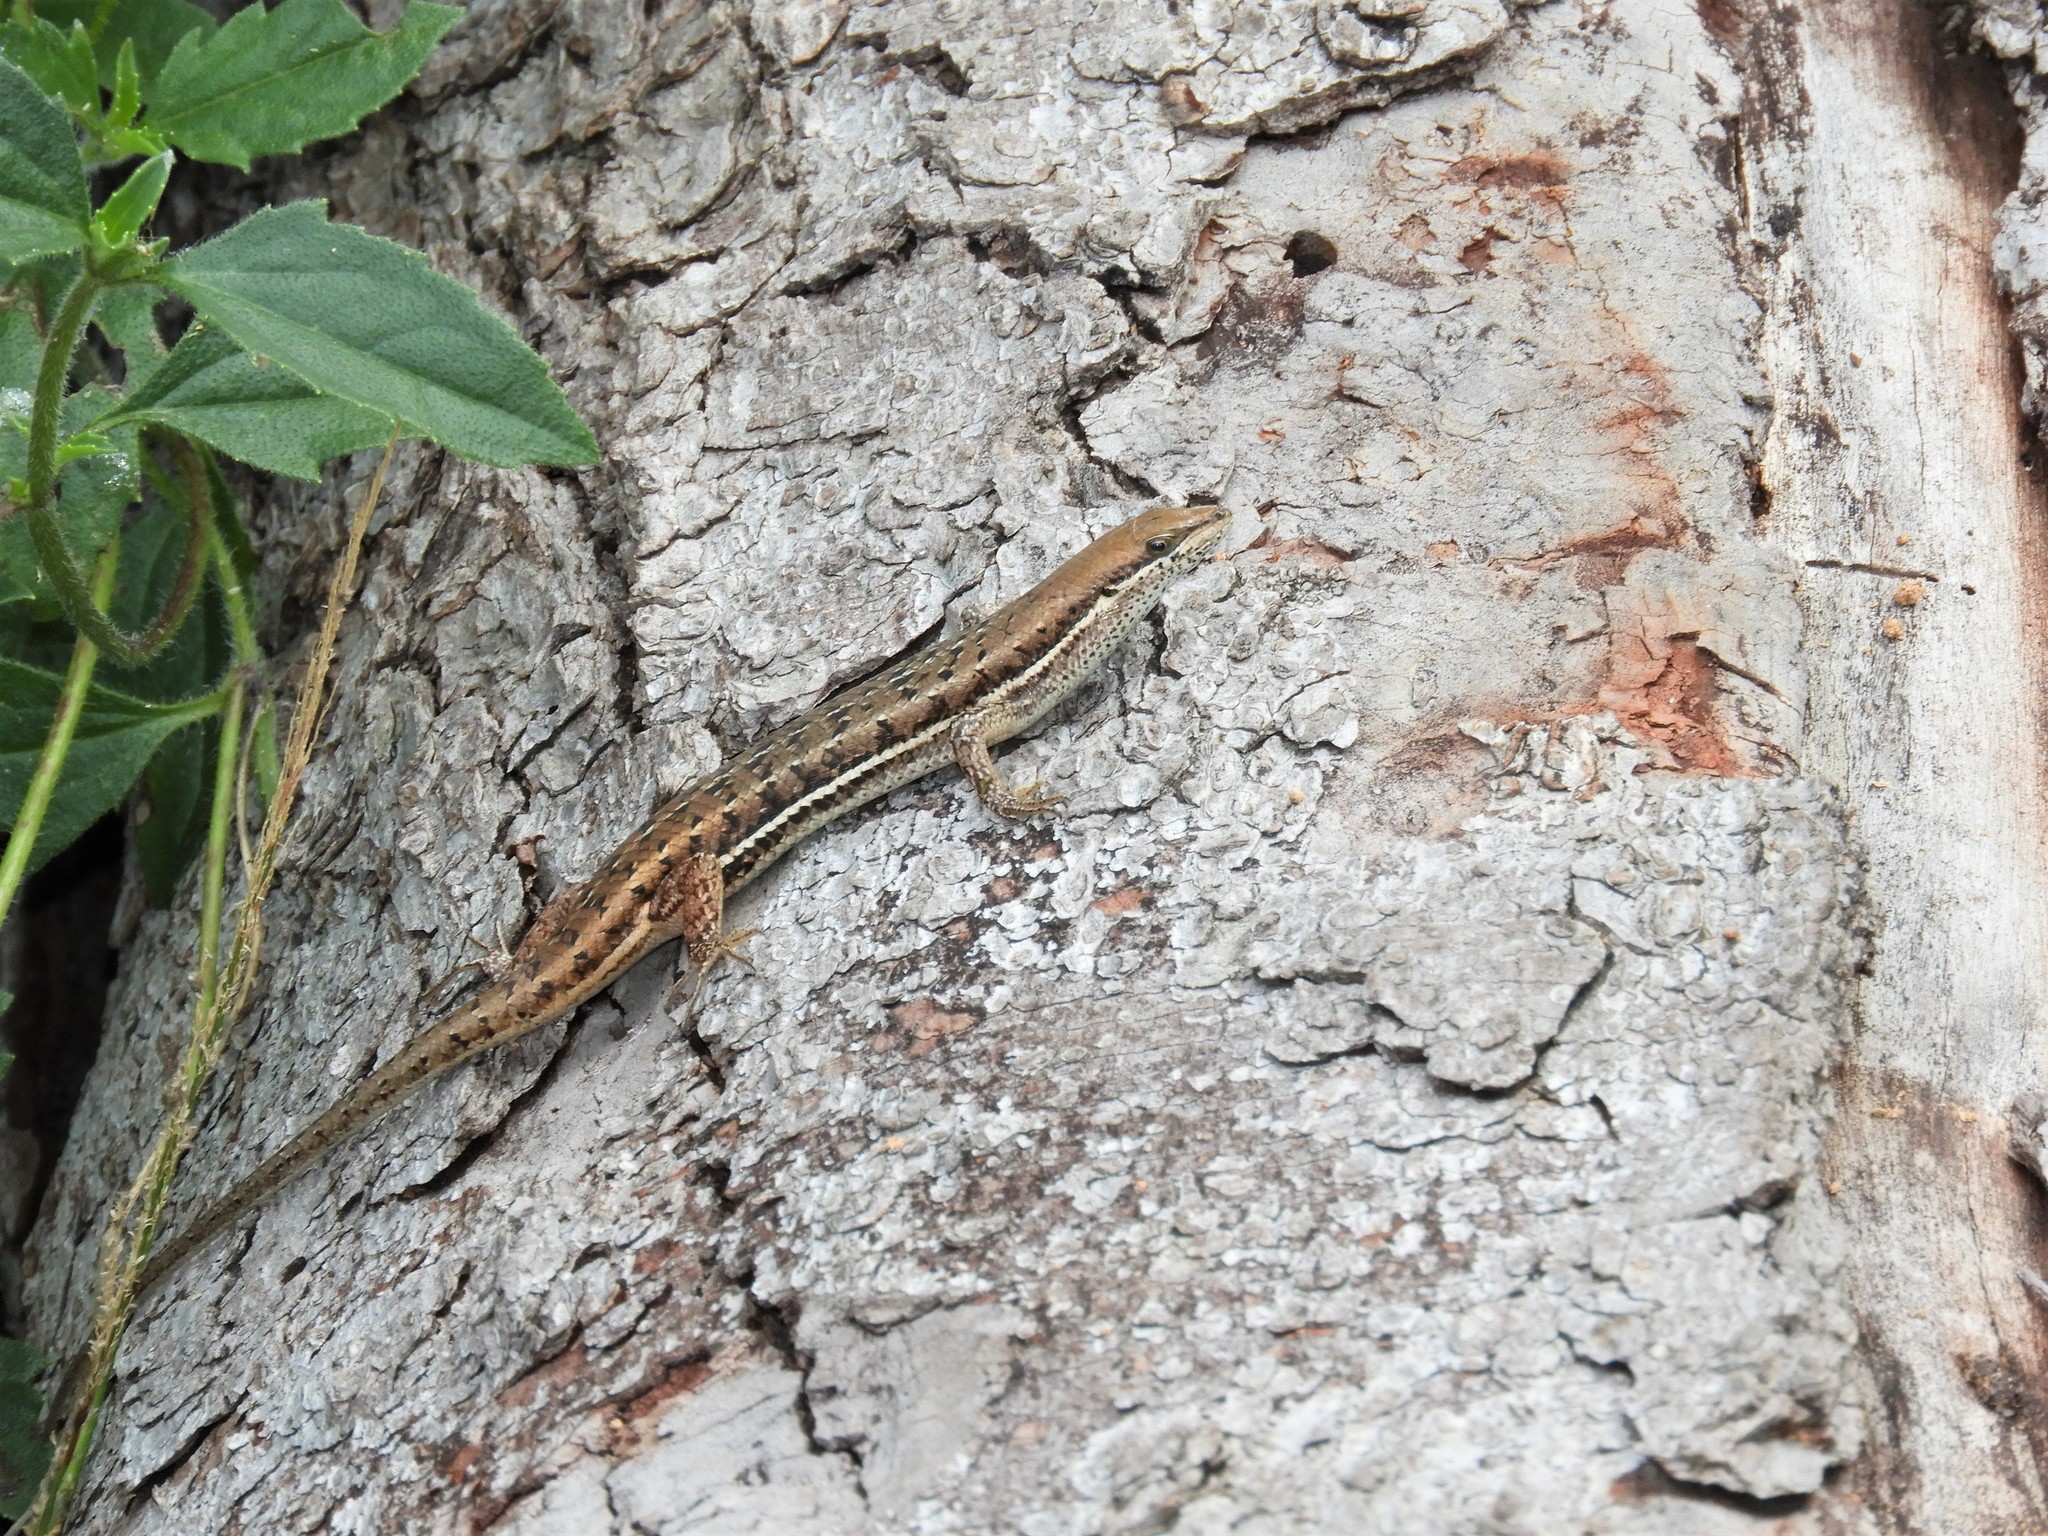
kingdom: Animalia
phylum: Chordata
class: Squamata
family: Scincidae
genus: Trachylepis
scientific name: Trachylepis varia
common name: Eastern variable skink
